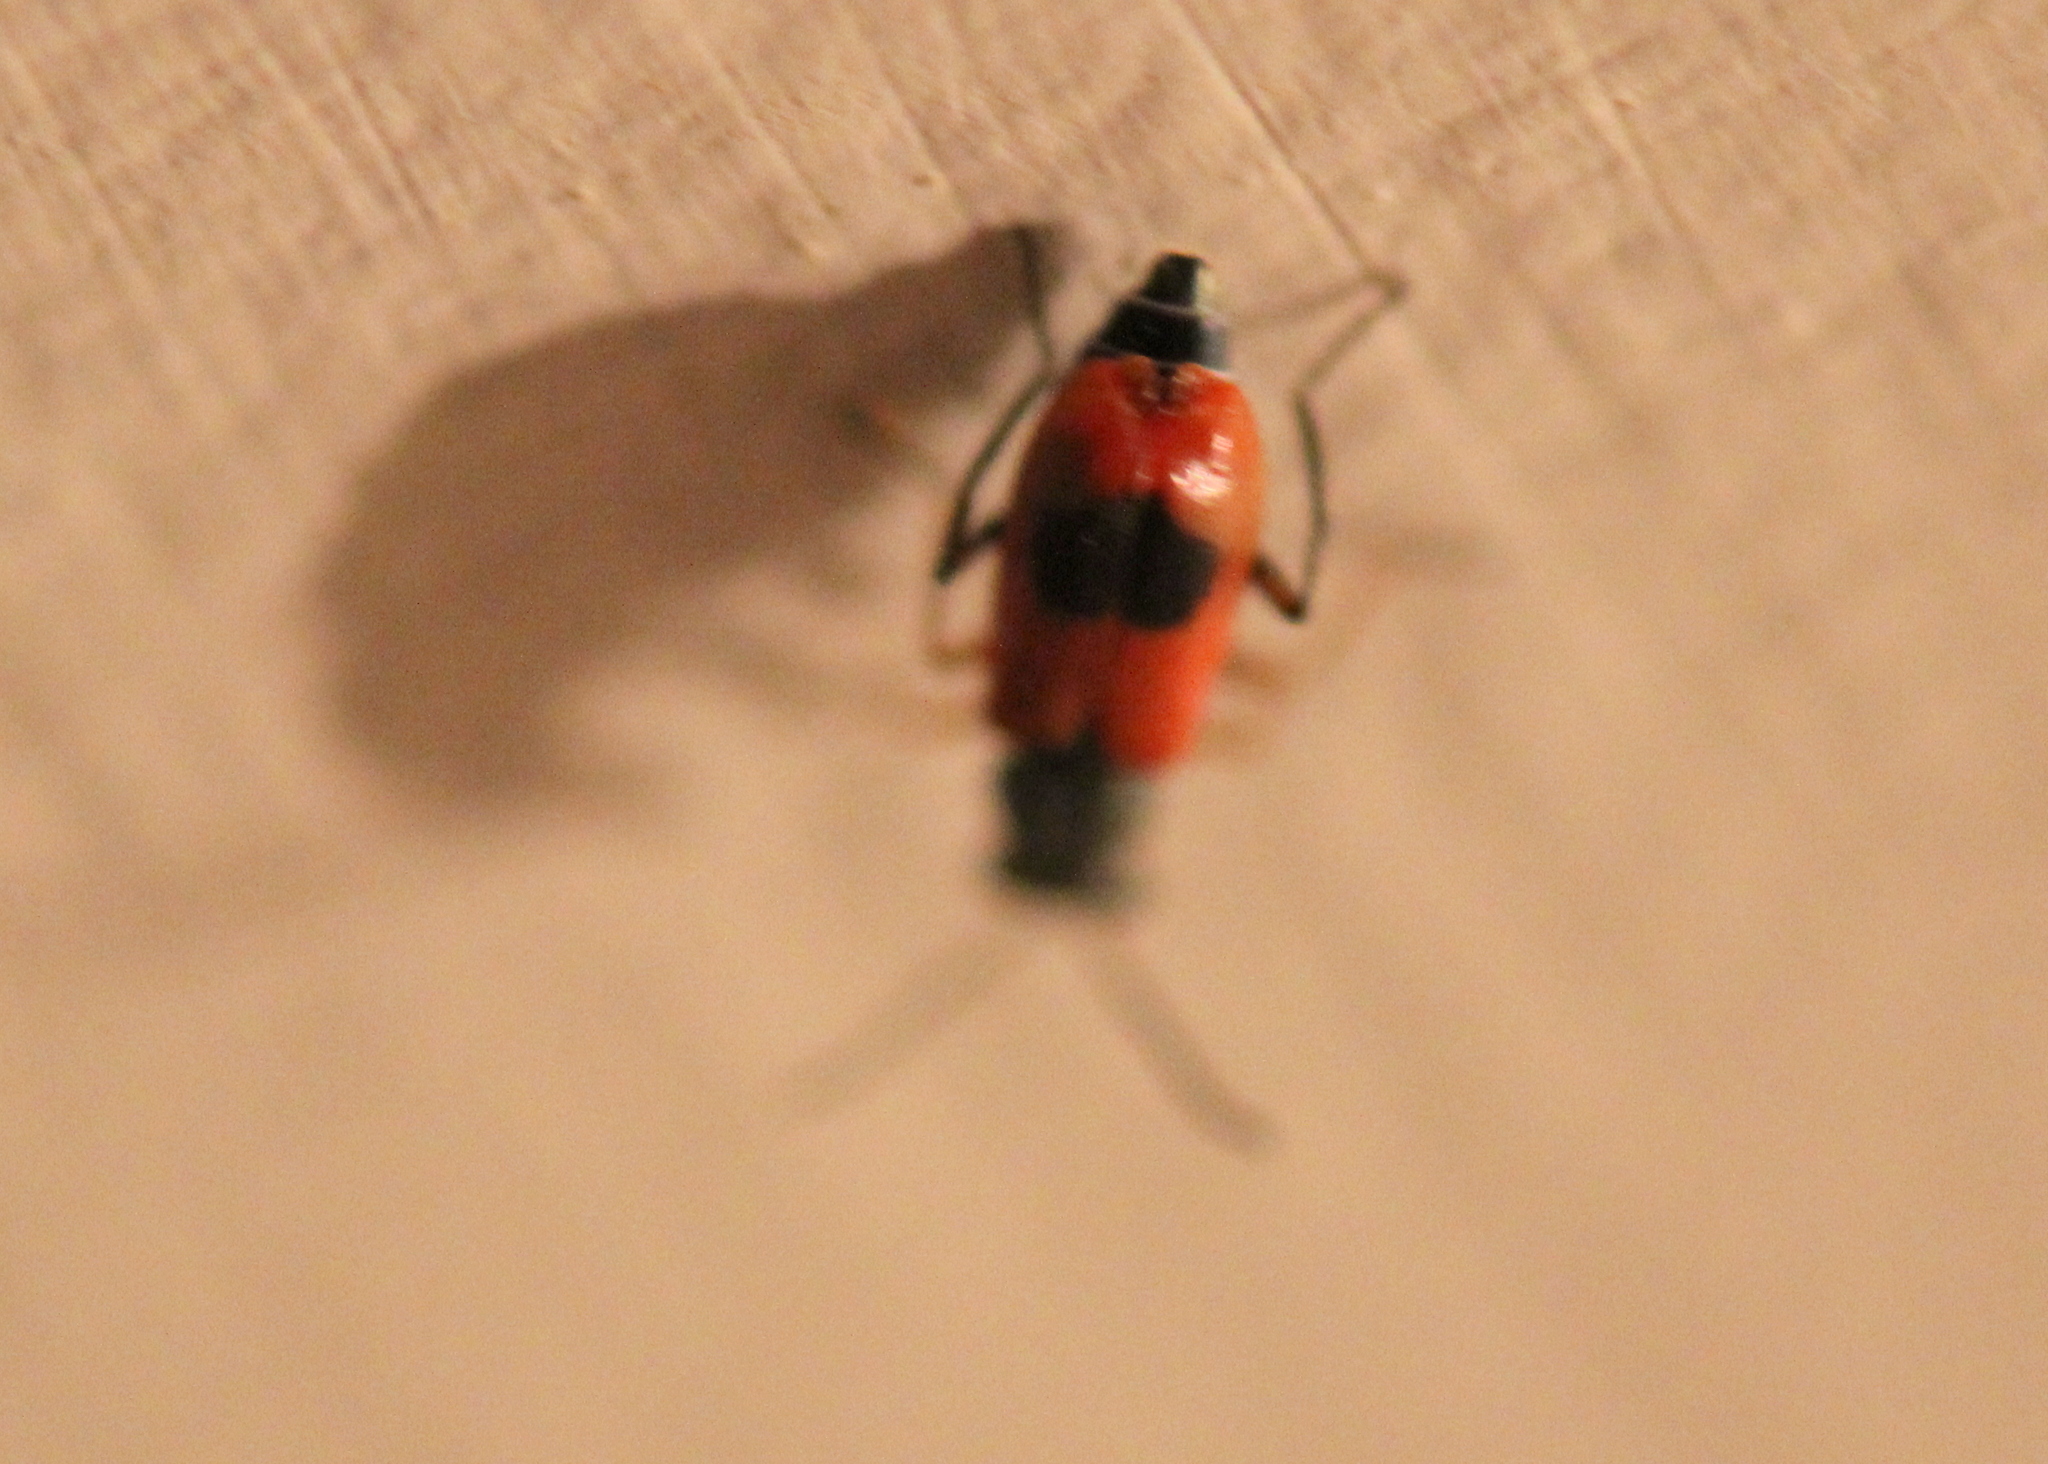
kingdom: Animalia
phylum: Arthropoda
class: Insecta
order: Coleoptera
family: Melyridae
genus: Anthocomus
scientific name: Anthocomus equestris
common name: Black-banded soft-winged flower beetle
